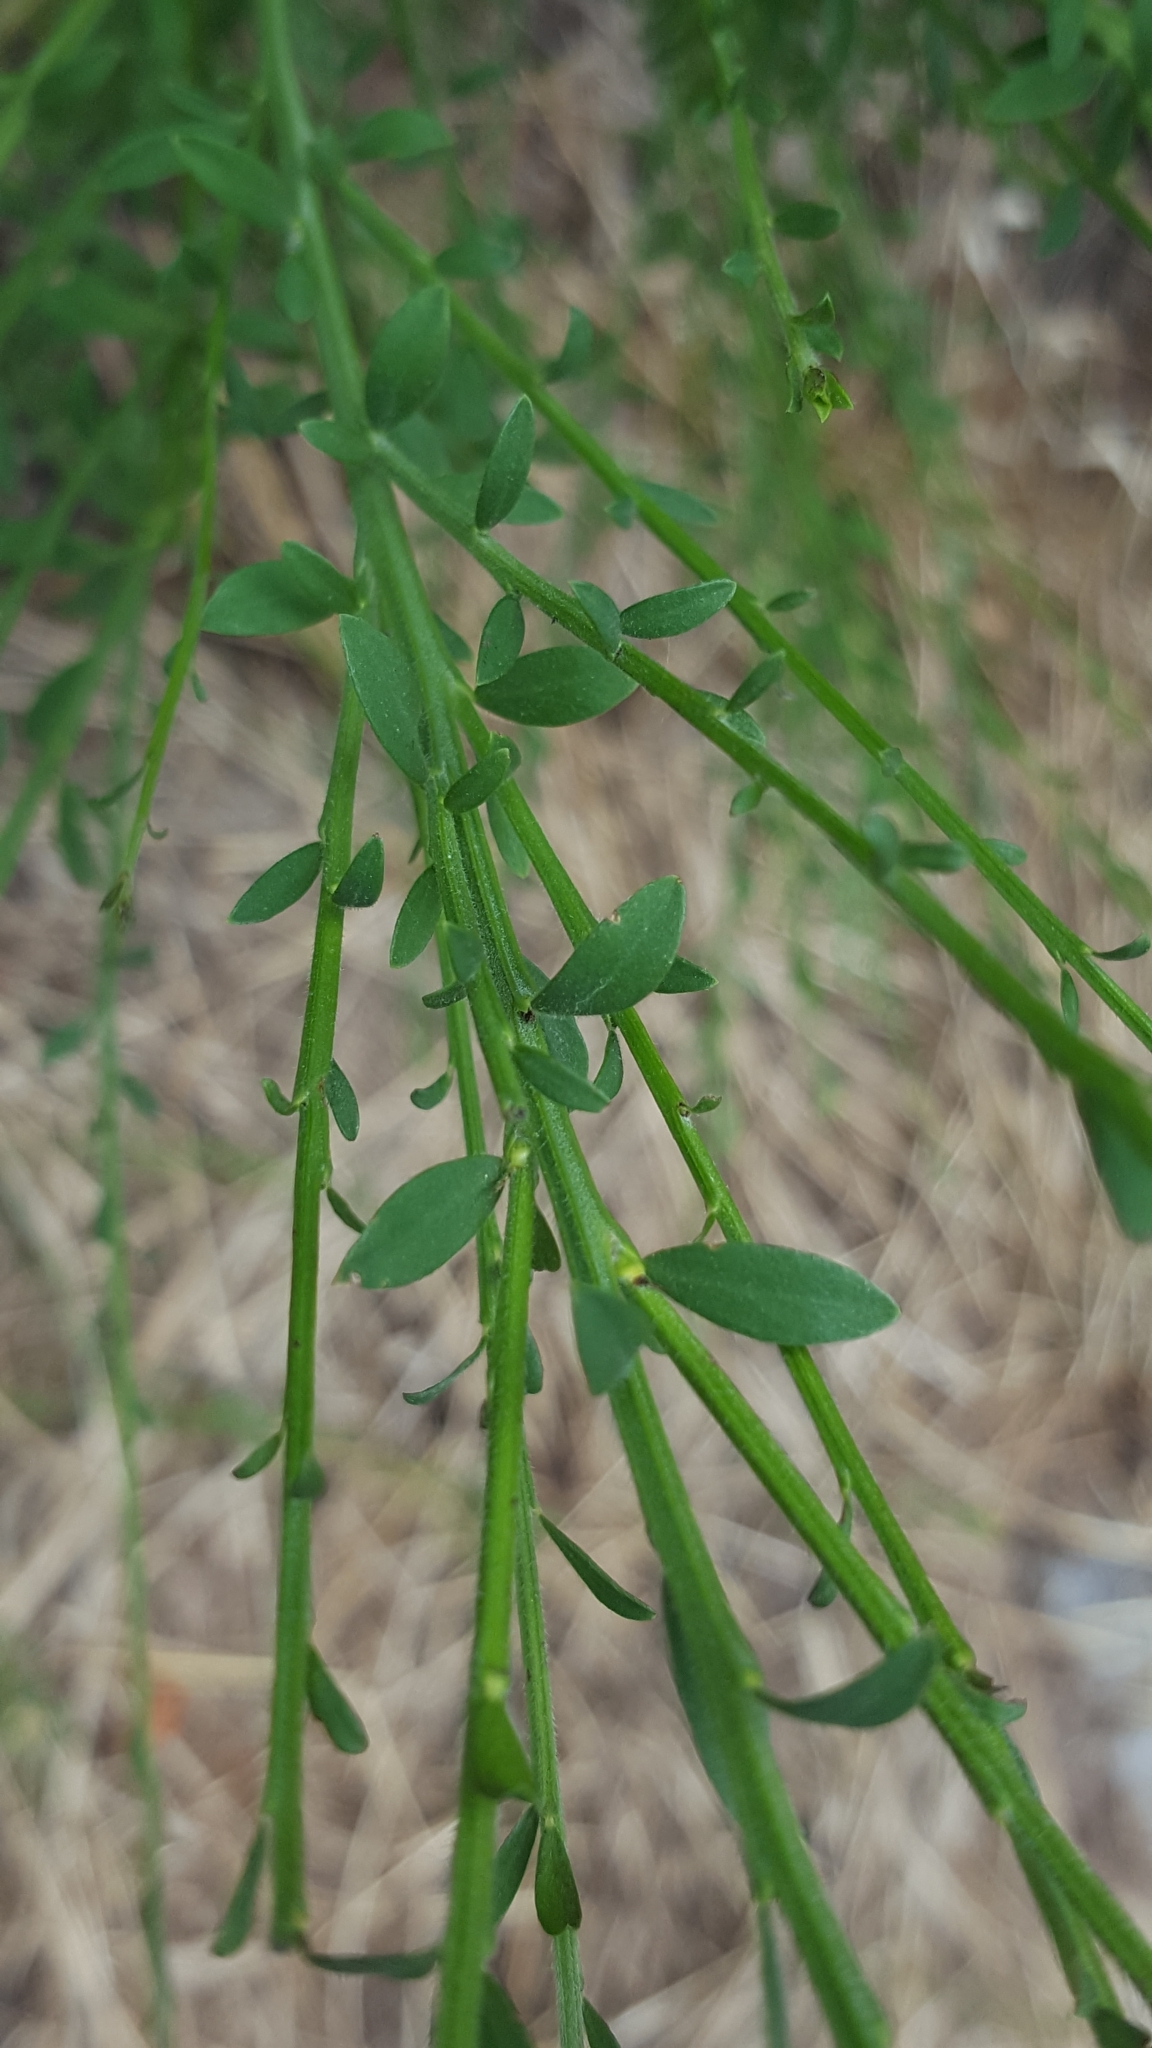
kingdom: Plantae
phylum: Tracheophyta
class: Magnoliopsida
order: Fabales
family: Fabaceae
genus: Cytisus
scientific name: Cytisus scoparius
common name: Scotch broom
